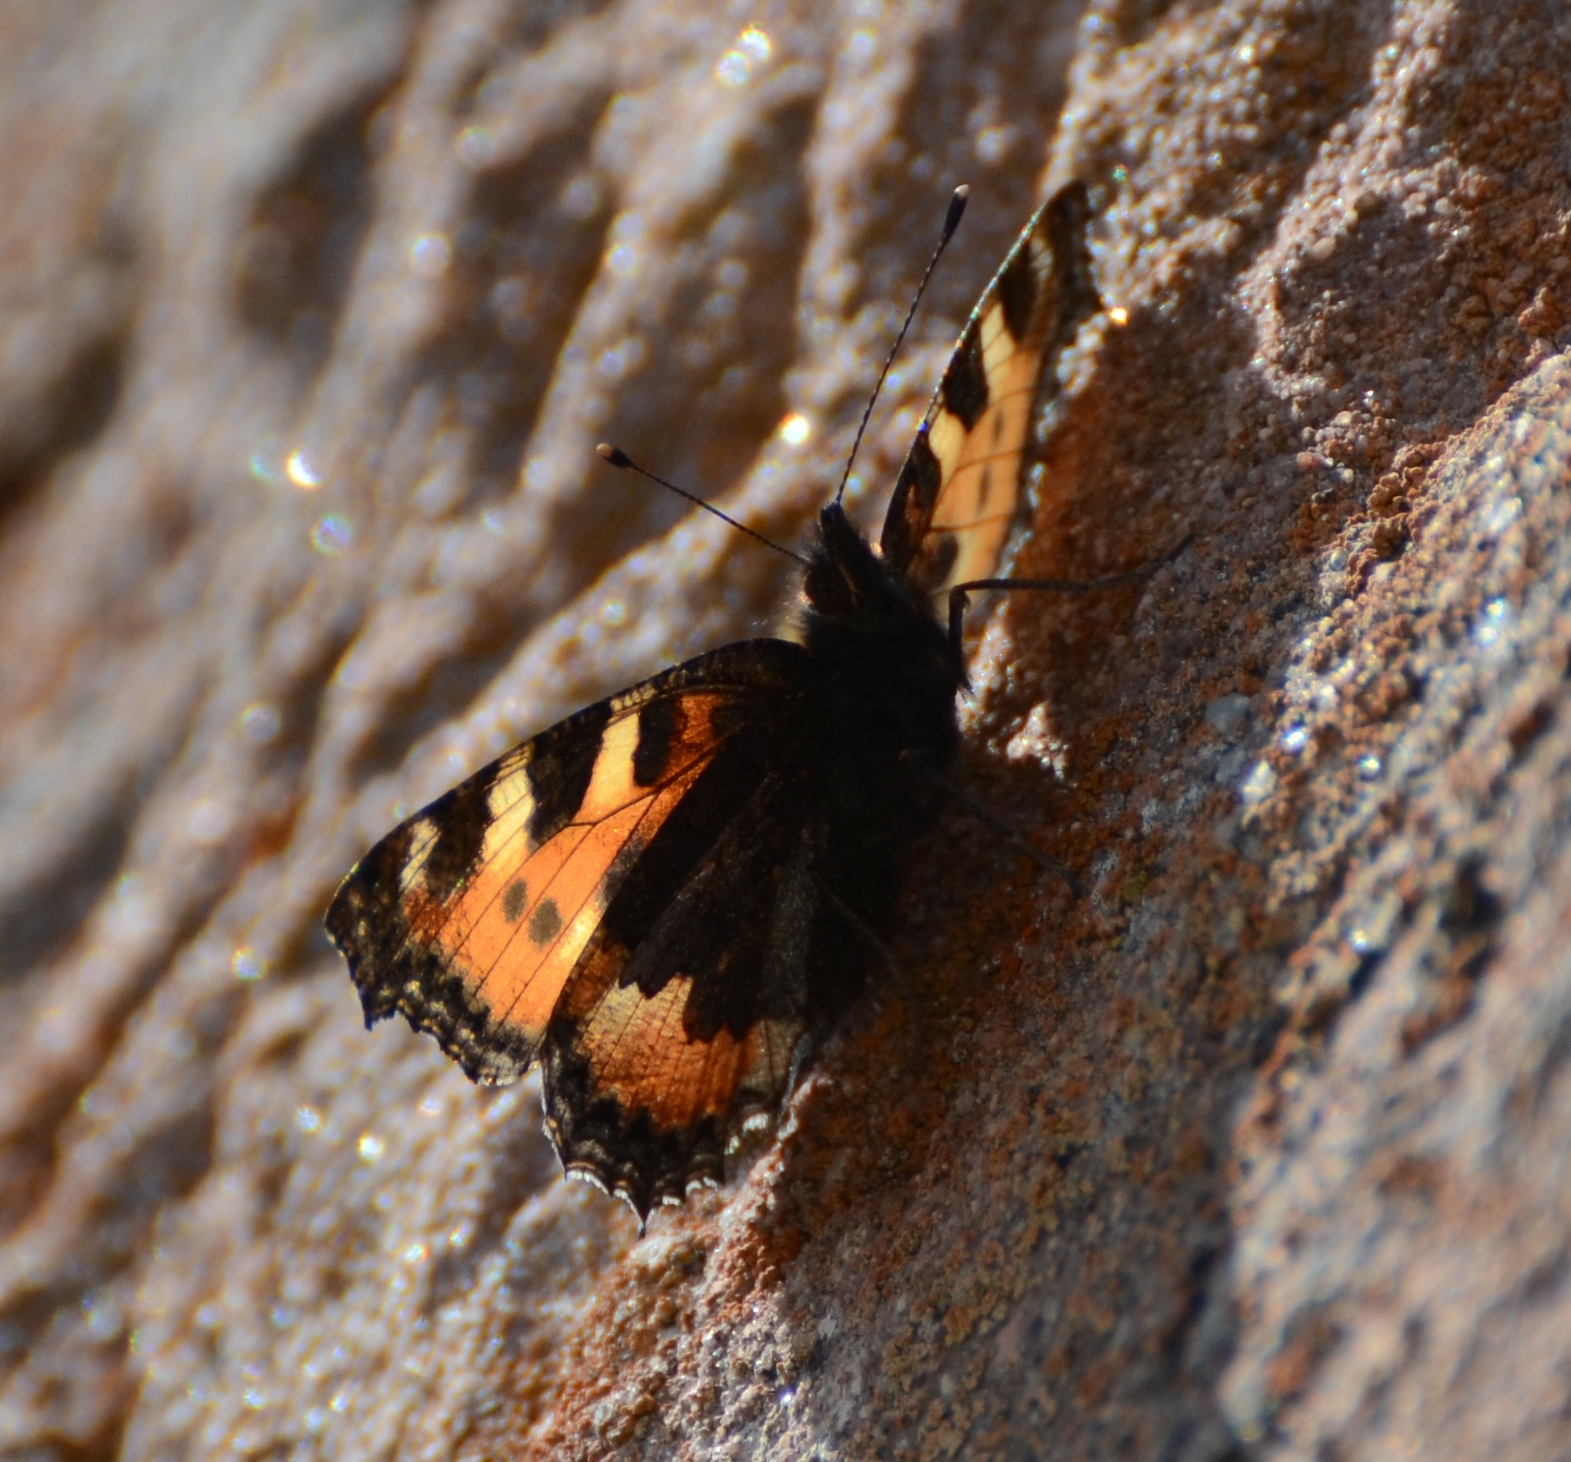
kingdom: Animalia
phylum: Arthropoda
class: Insecta
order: Lepidoptera
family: Nymphalidae
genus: Aglais
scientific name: Aglais urticae
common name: Small tortoiseshell
